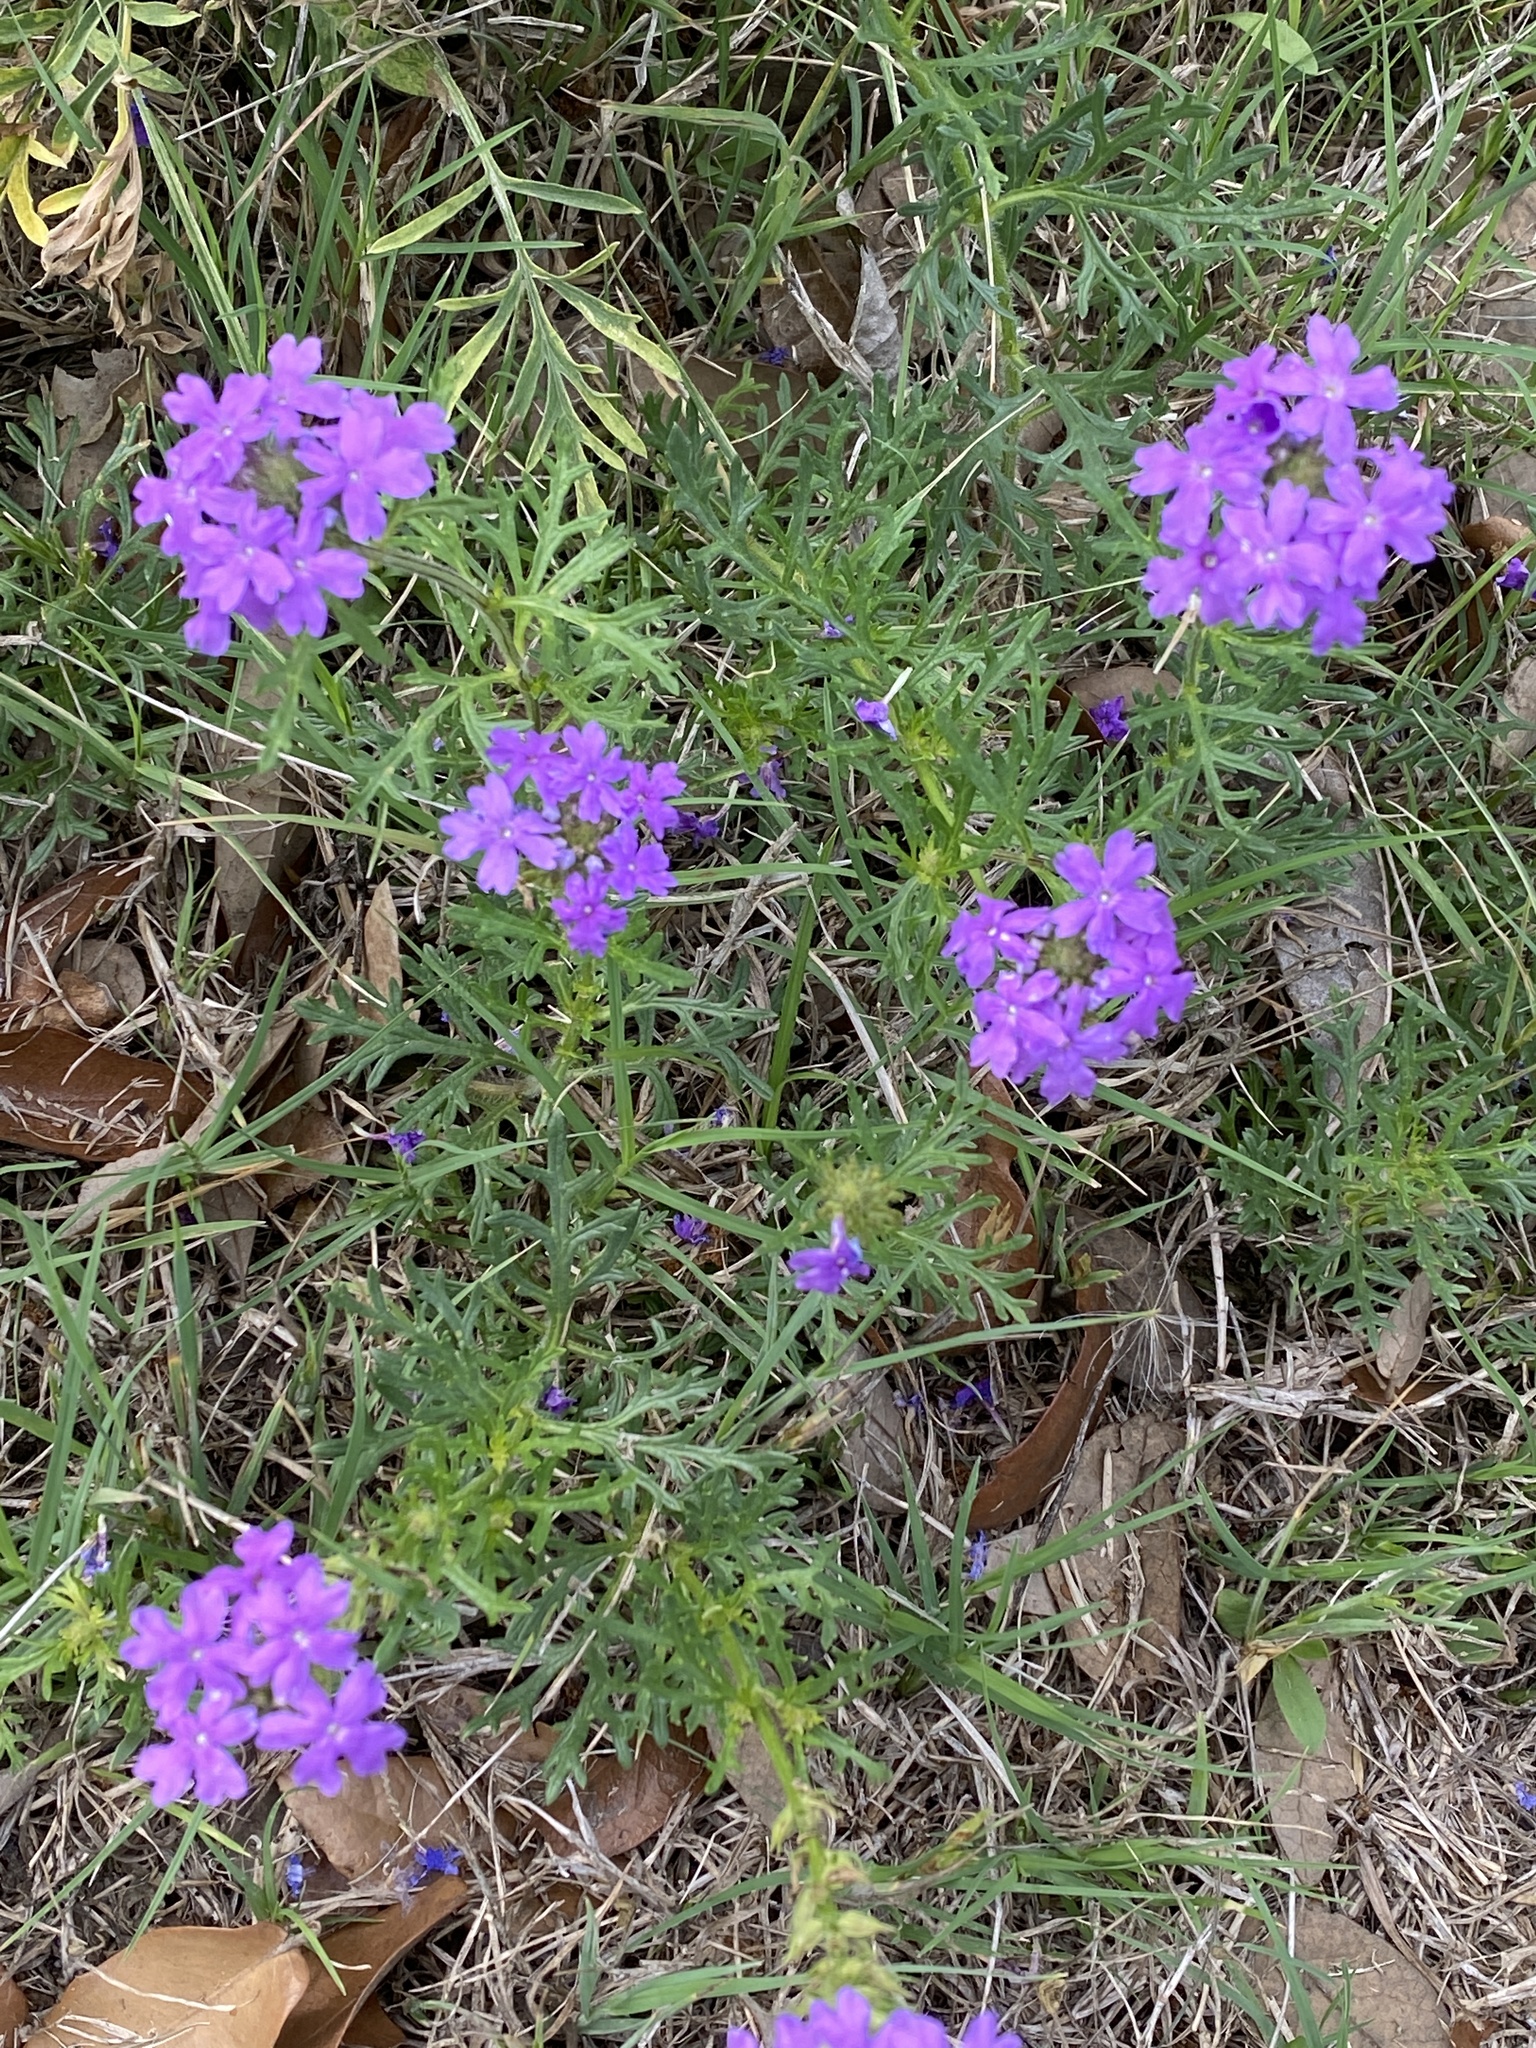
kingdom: Plantae
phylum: Tracheophyta
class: Magnoliopsida
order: Lamiales
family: Verbenaceae
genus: Verbena
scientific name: Verbena bipinnatifida
